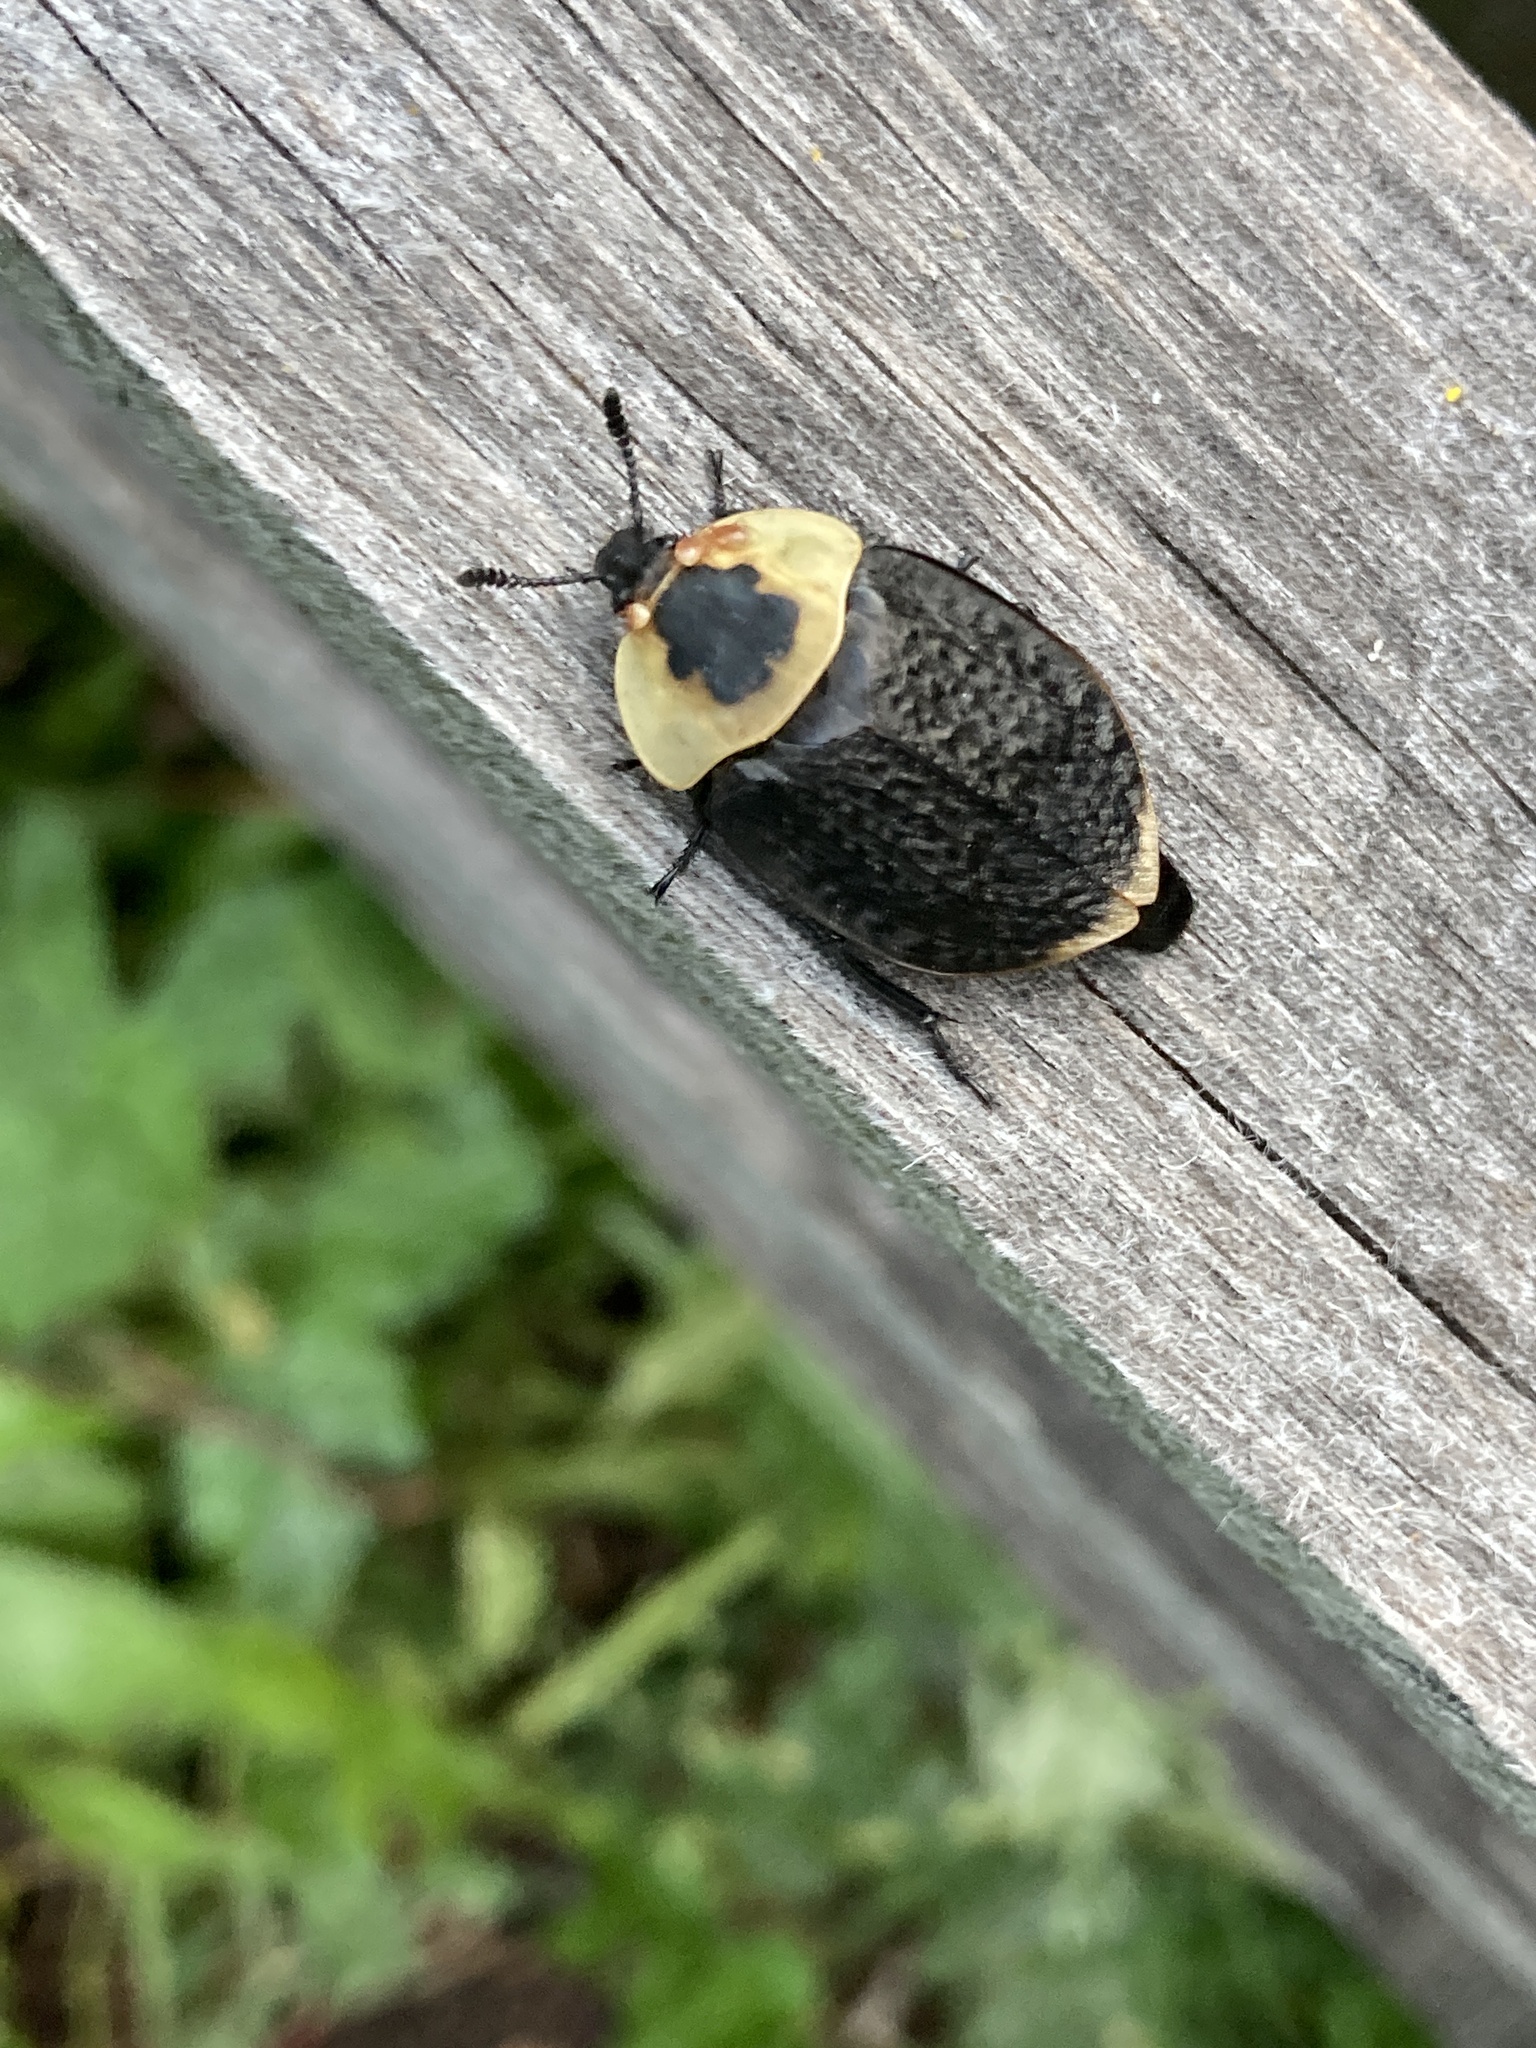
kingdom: Animalia
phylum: Arthropoda
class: Insecta
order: Coleoptera
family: Staphylinidae
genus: Necrophila
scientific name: Necrophila americana
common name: American carrion beetle
